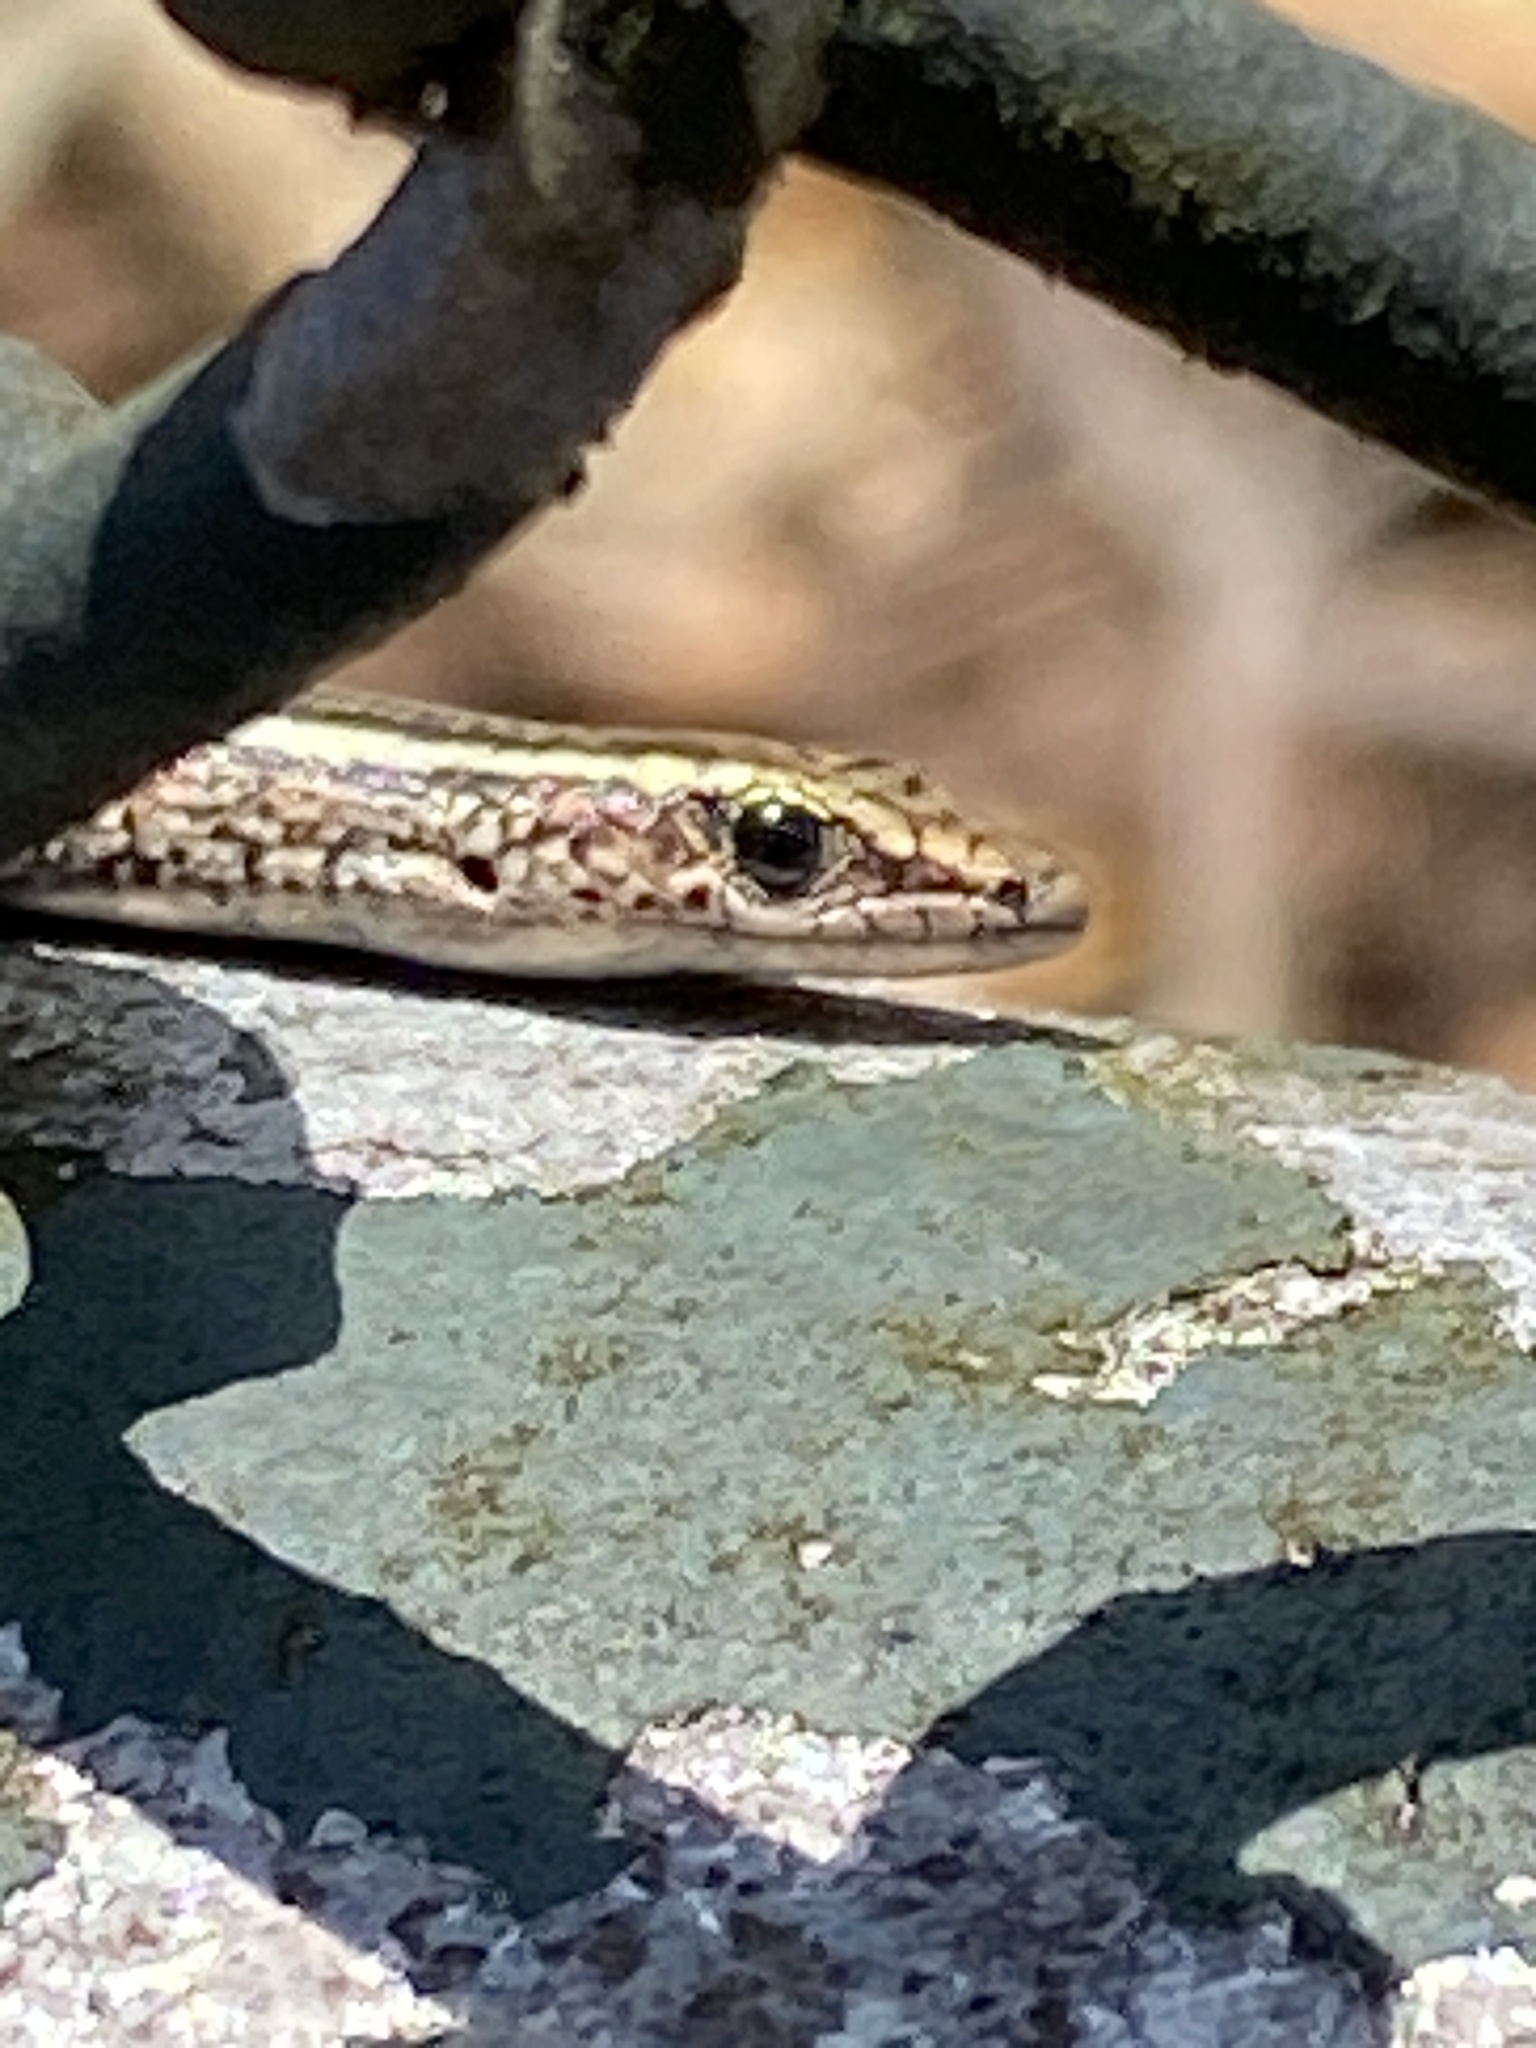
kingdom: Animalia
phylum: Chordata
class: Squamata
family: Scincidae
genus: Cryptoblepharus
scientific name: Cryptoblepharus pulcher
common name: Elegant snake-eyed skink
